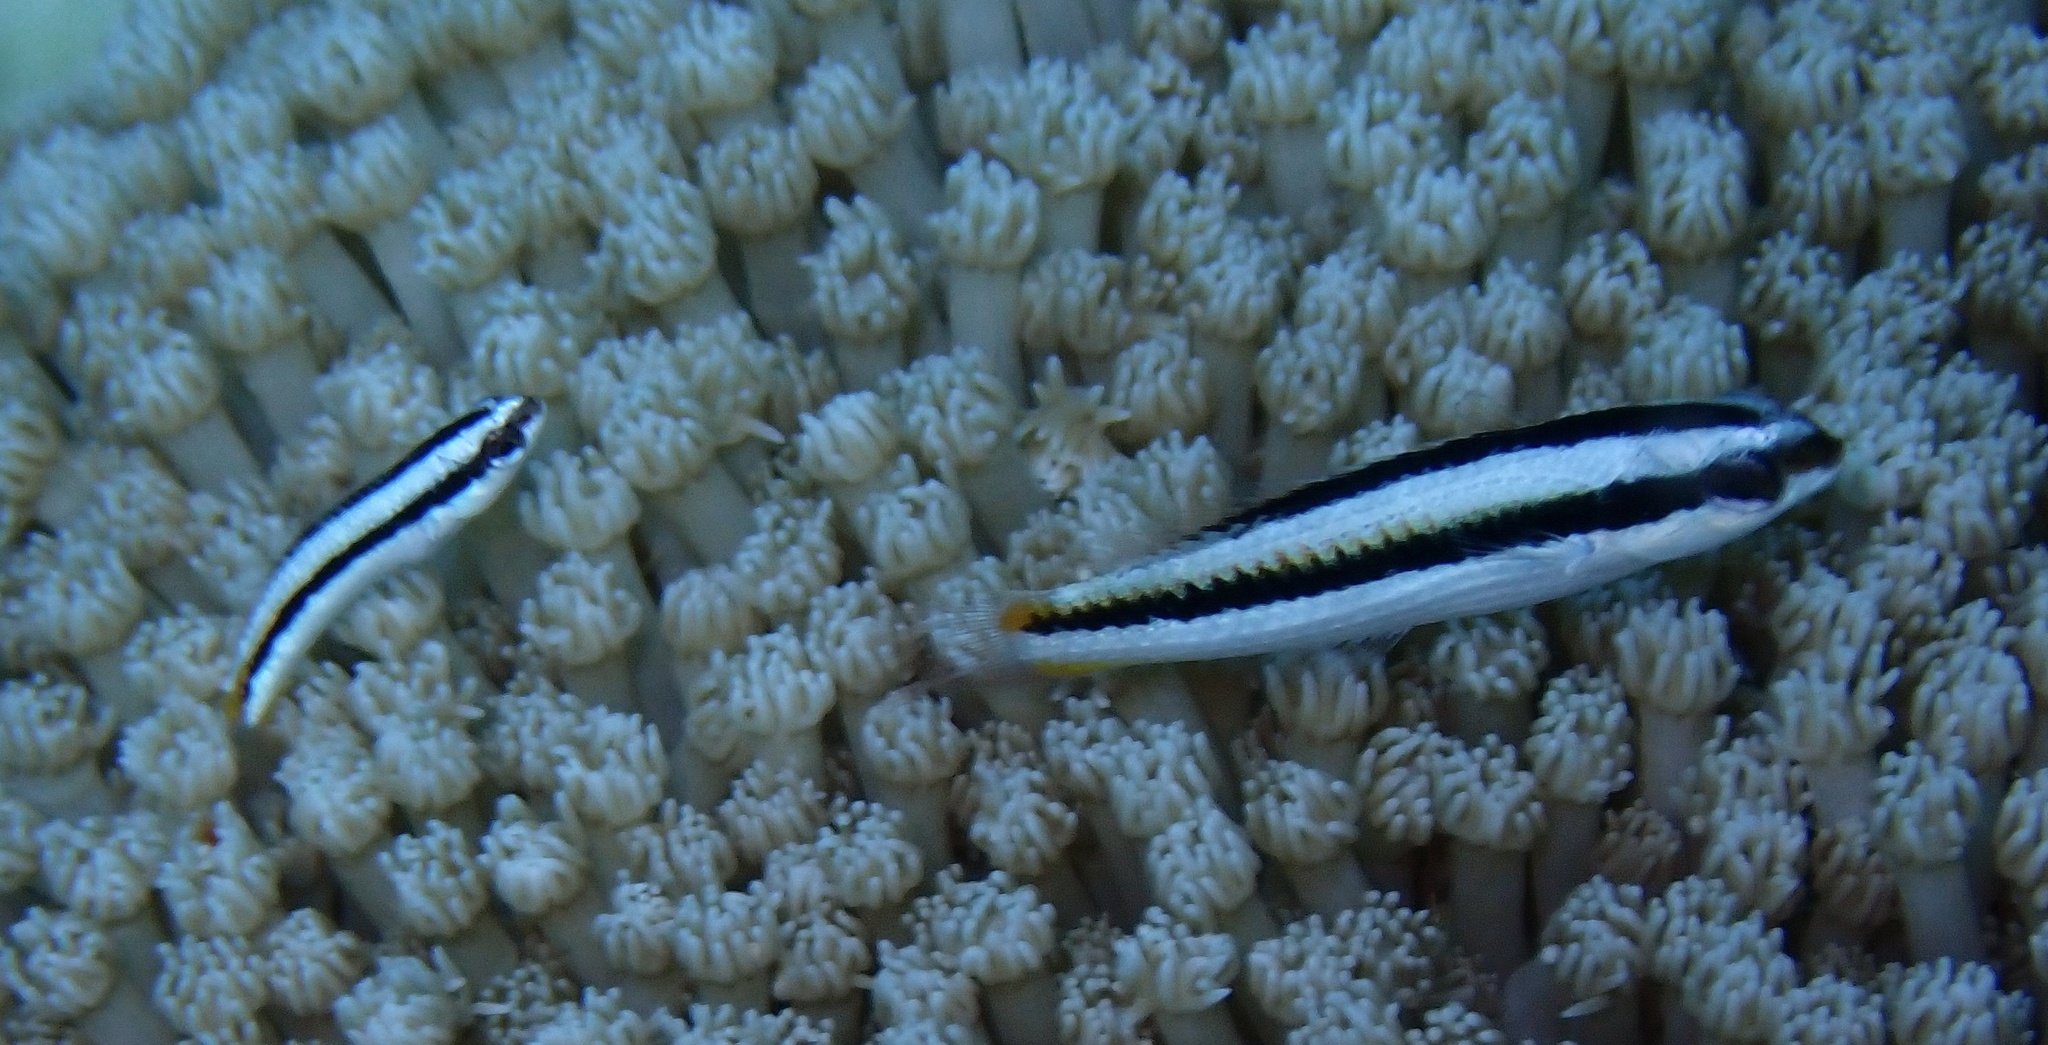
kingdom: Animalia
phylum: Chordata
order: Perciformes
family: Labridae
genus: Thalassoma
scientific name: Thalassoma amblycephalum
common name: Bluehead wrasse
